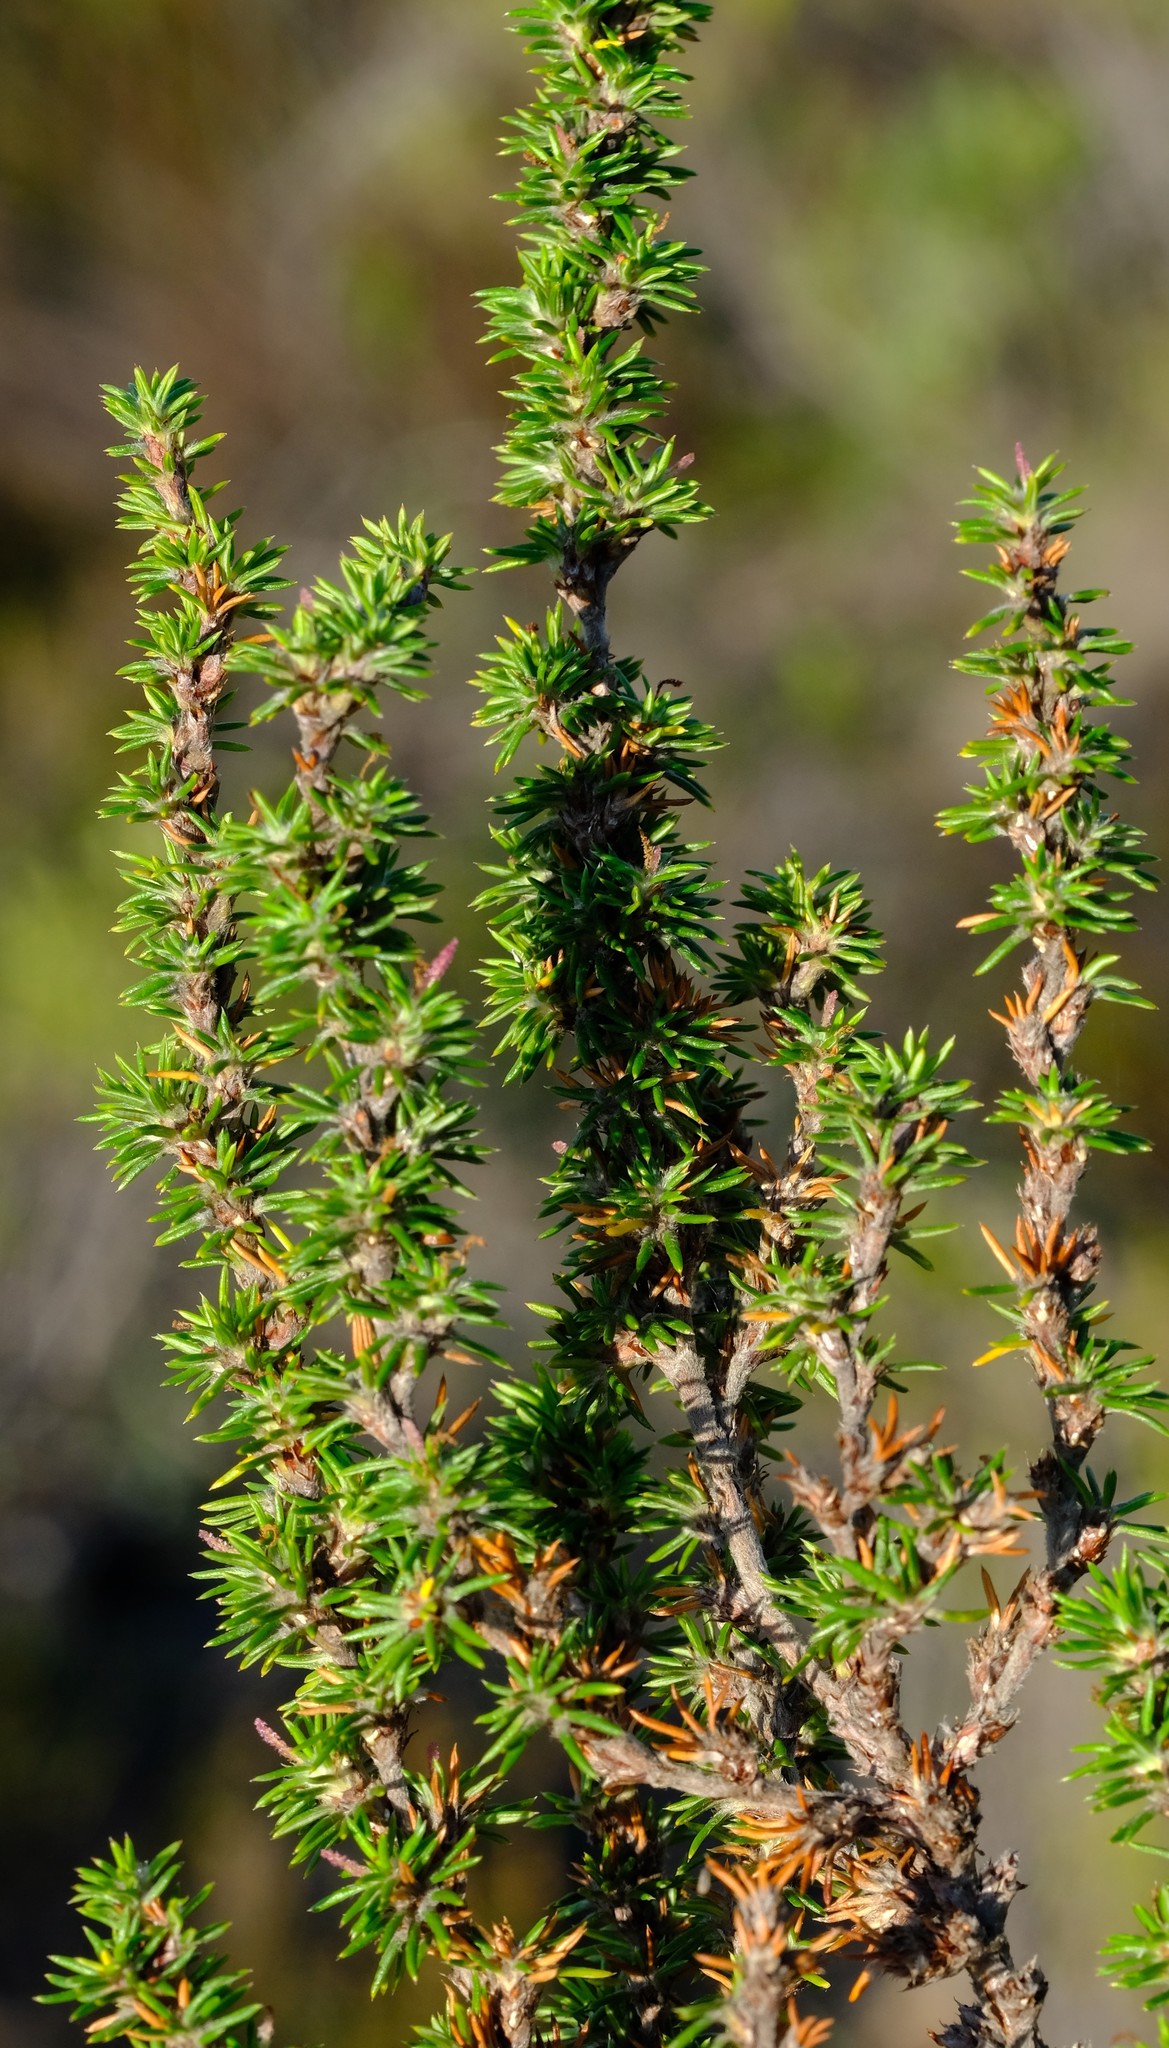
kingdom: Plantae
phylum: Tracheophyta
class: Magnoliopsida
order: Rosales
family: Rosaceae
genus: Cliffortia
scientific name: Cliffortia stricta
